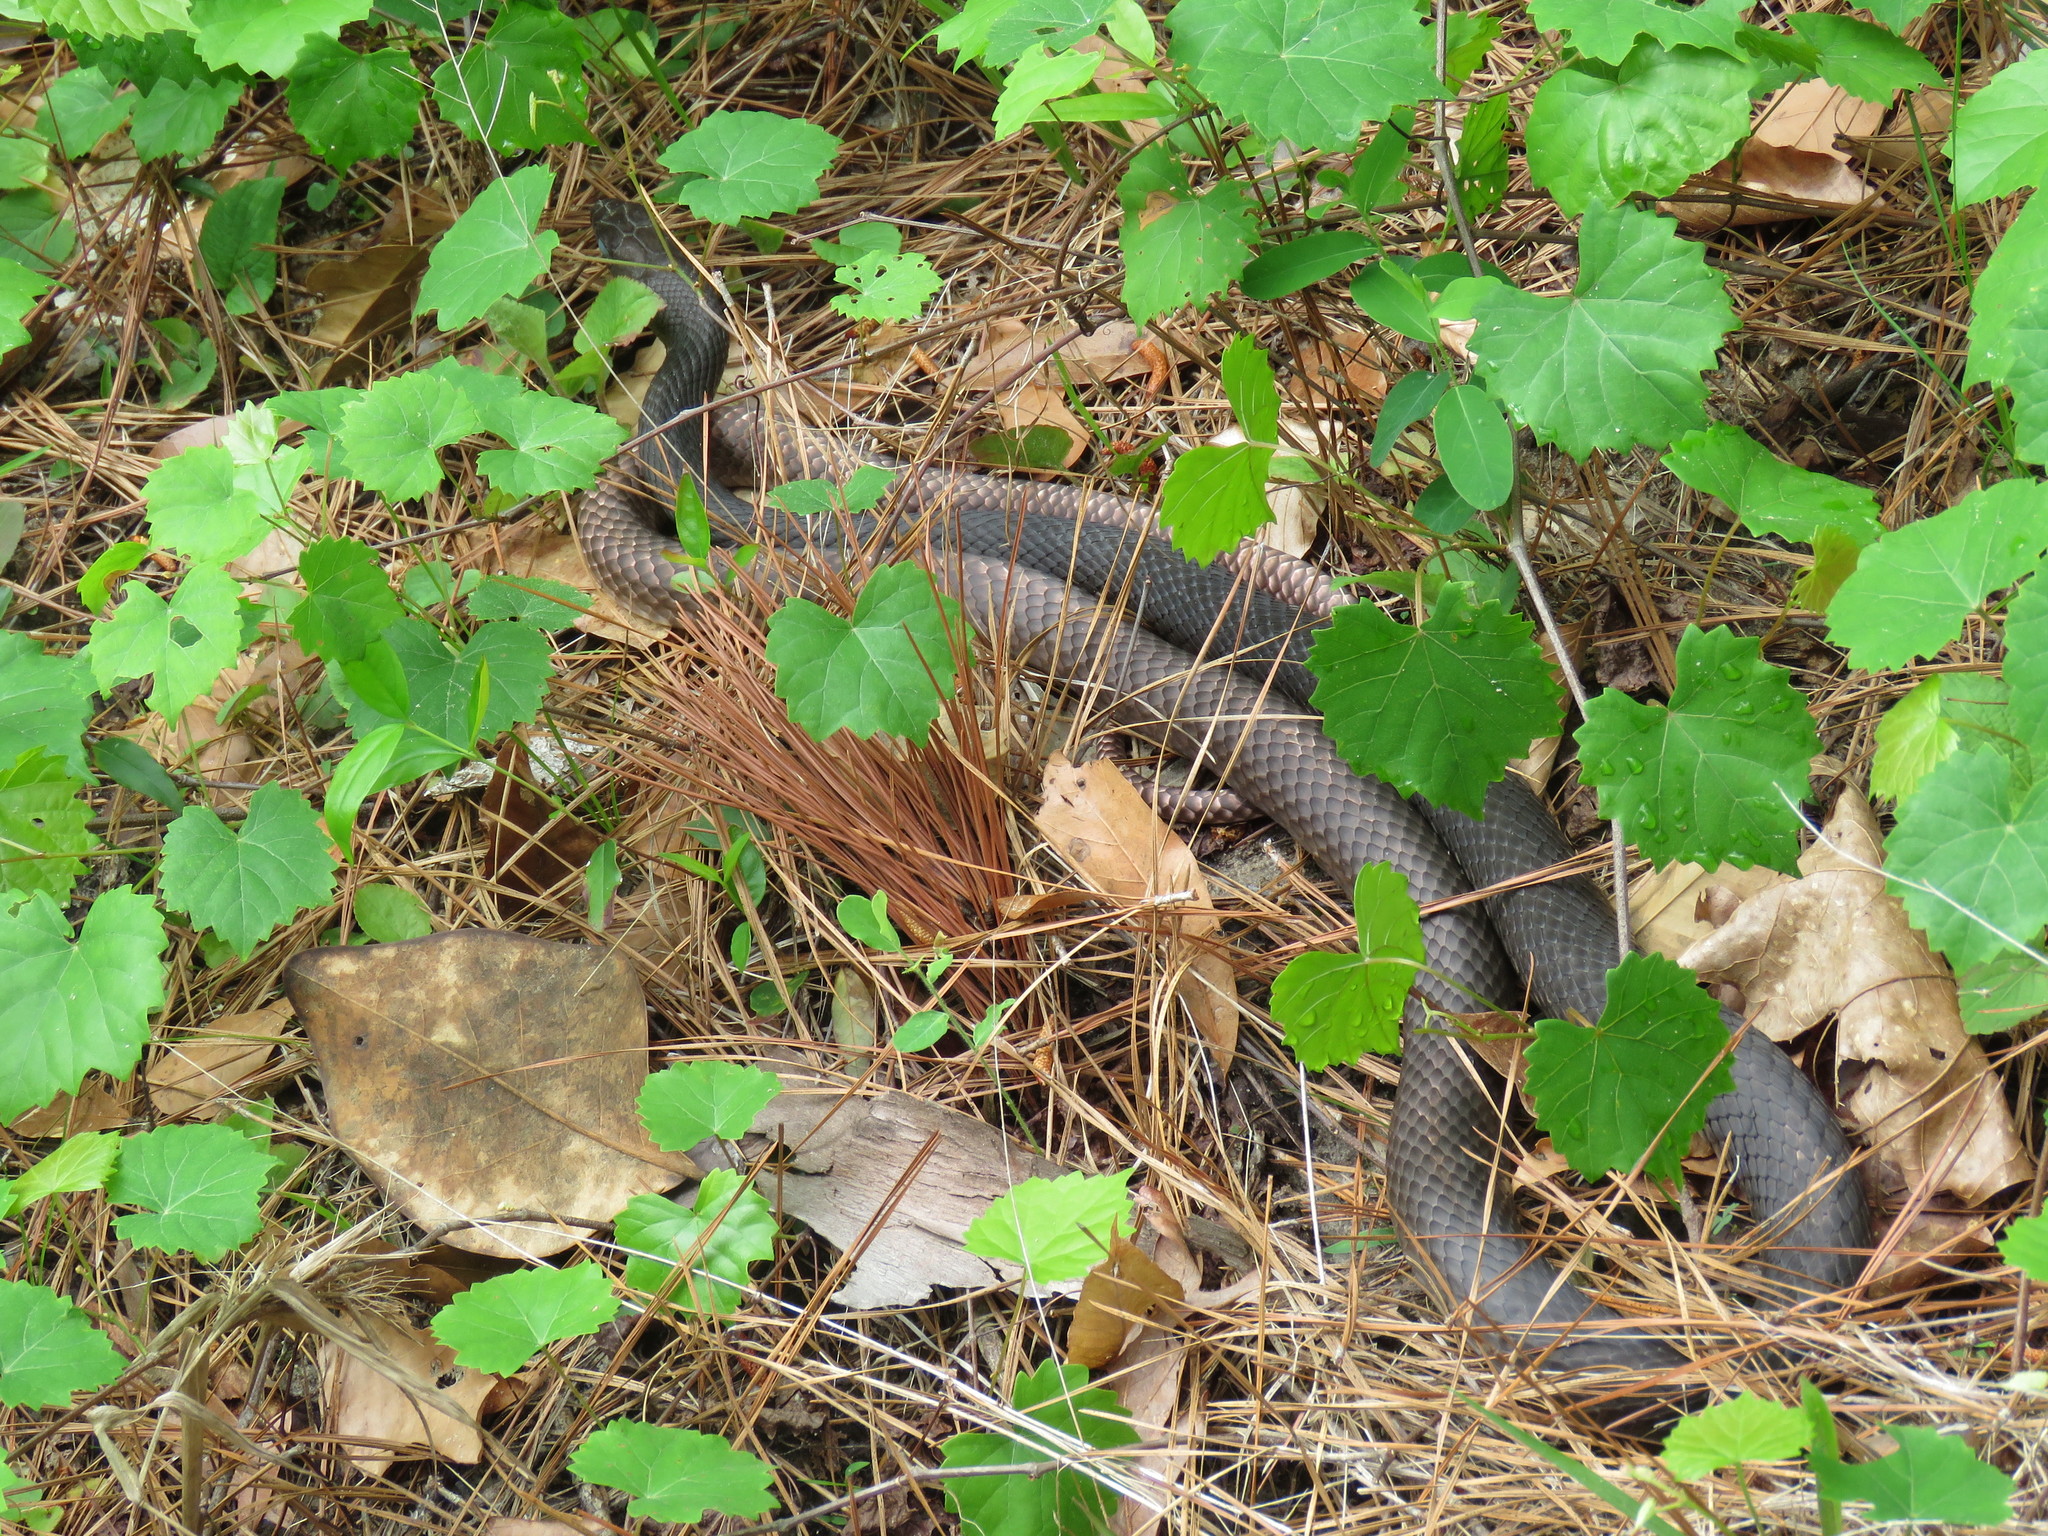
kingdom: Animalia
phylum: Chordata
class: Squamata
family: Colubridae
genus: Masticophis
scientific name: Masticophis flagellum
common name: Coachwhip
